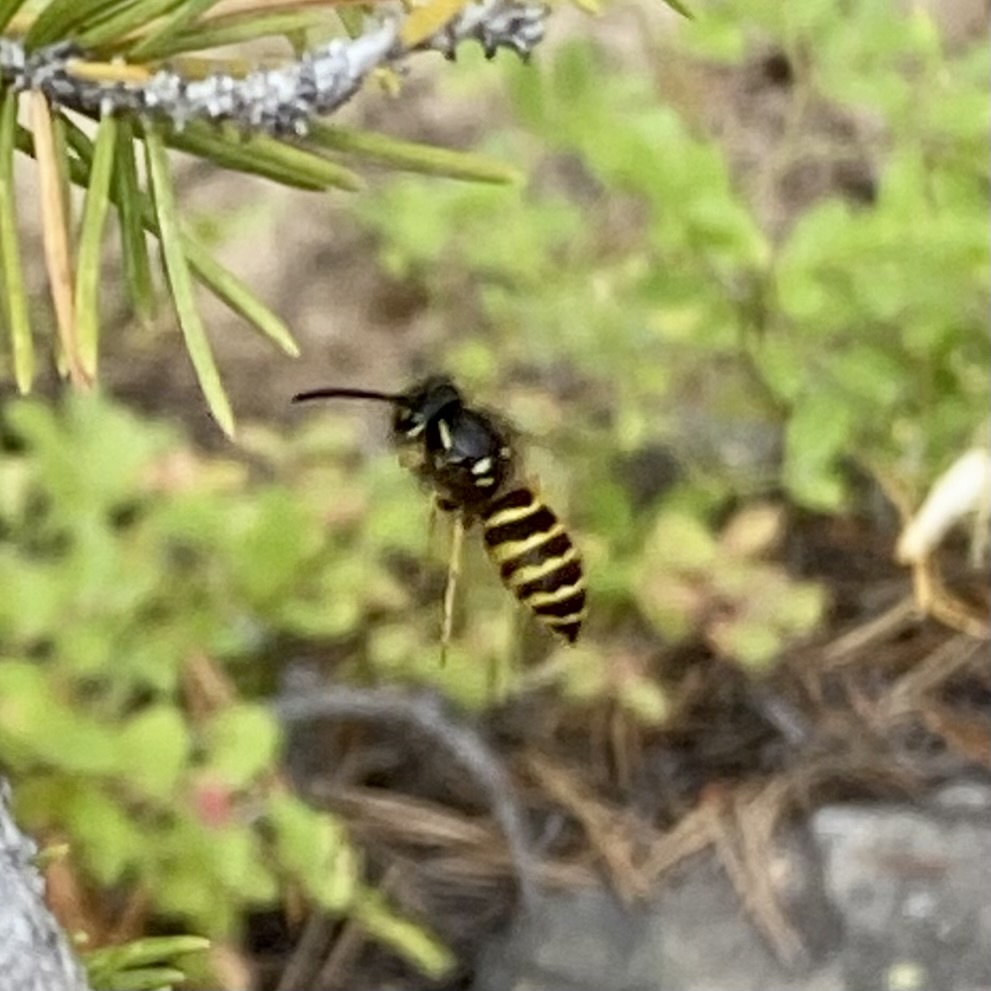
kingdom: Animalia
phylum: Arthropoda
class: Insecta
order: Hymenoptera
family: Vespidae
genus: Vespula
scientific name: Vespula alascensis
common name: Alaska yellowjacket
